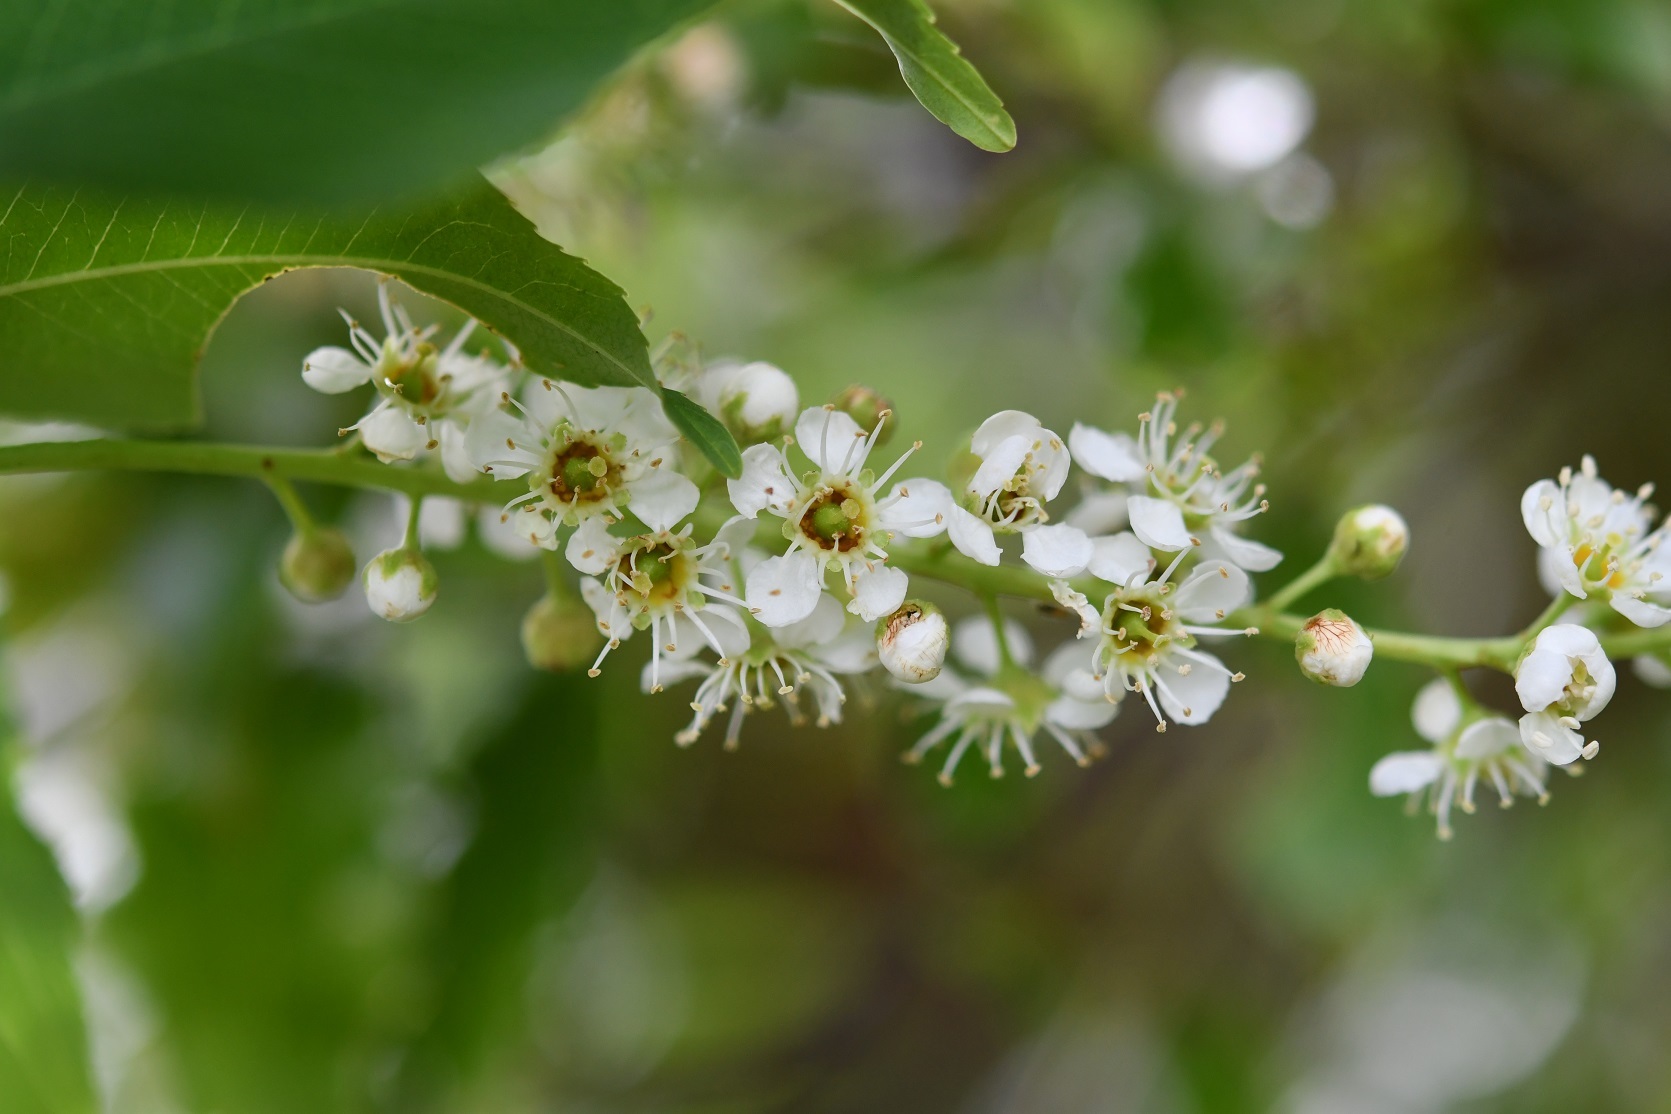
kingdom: Plantae
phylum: Tracheophyta
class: Magnoliopsida
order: Rosales
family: Rosaceae
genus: Prunus
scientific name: Prunus serotina
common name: Black cherry
